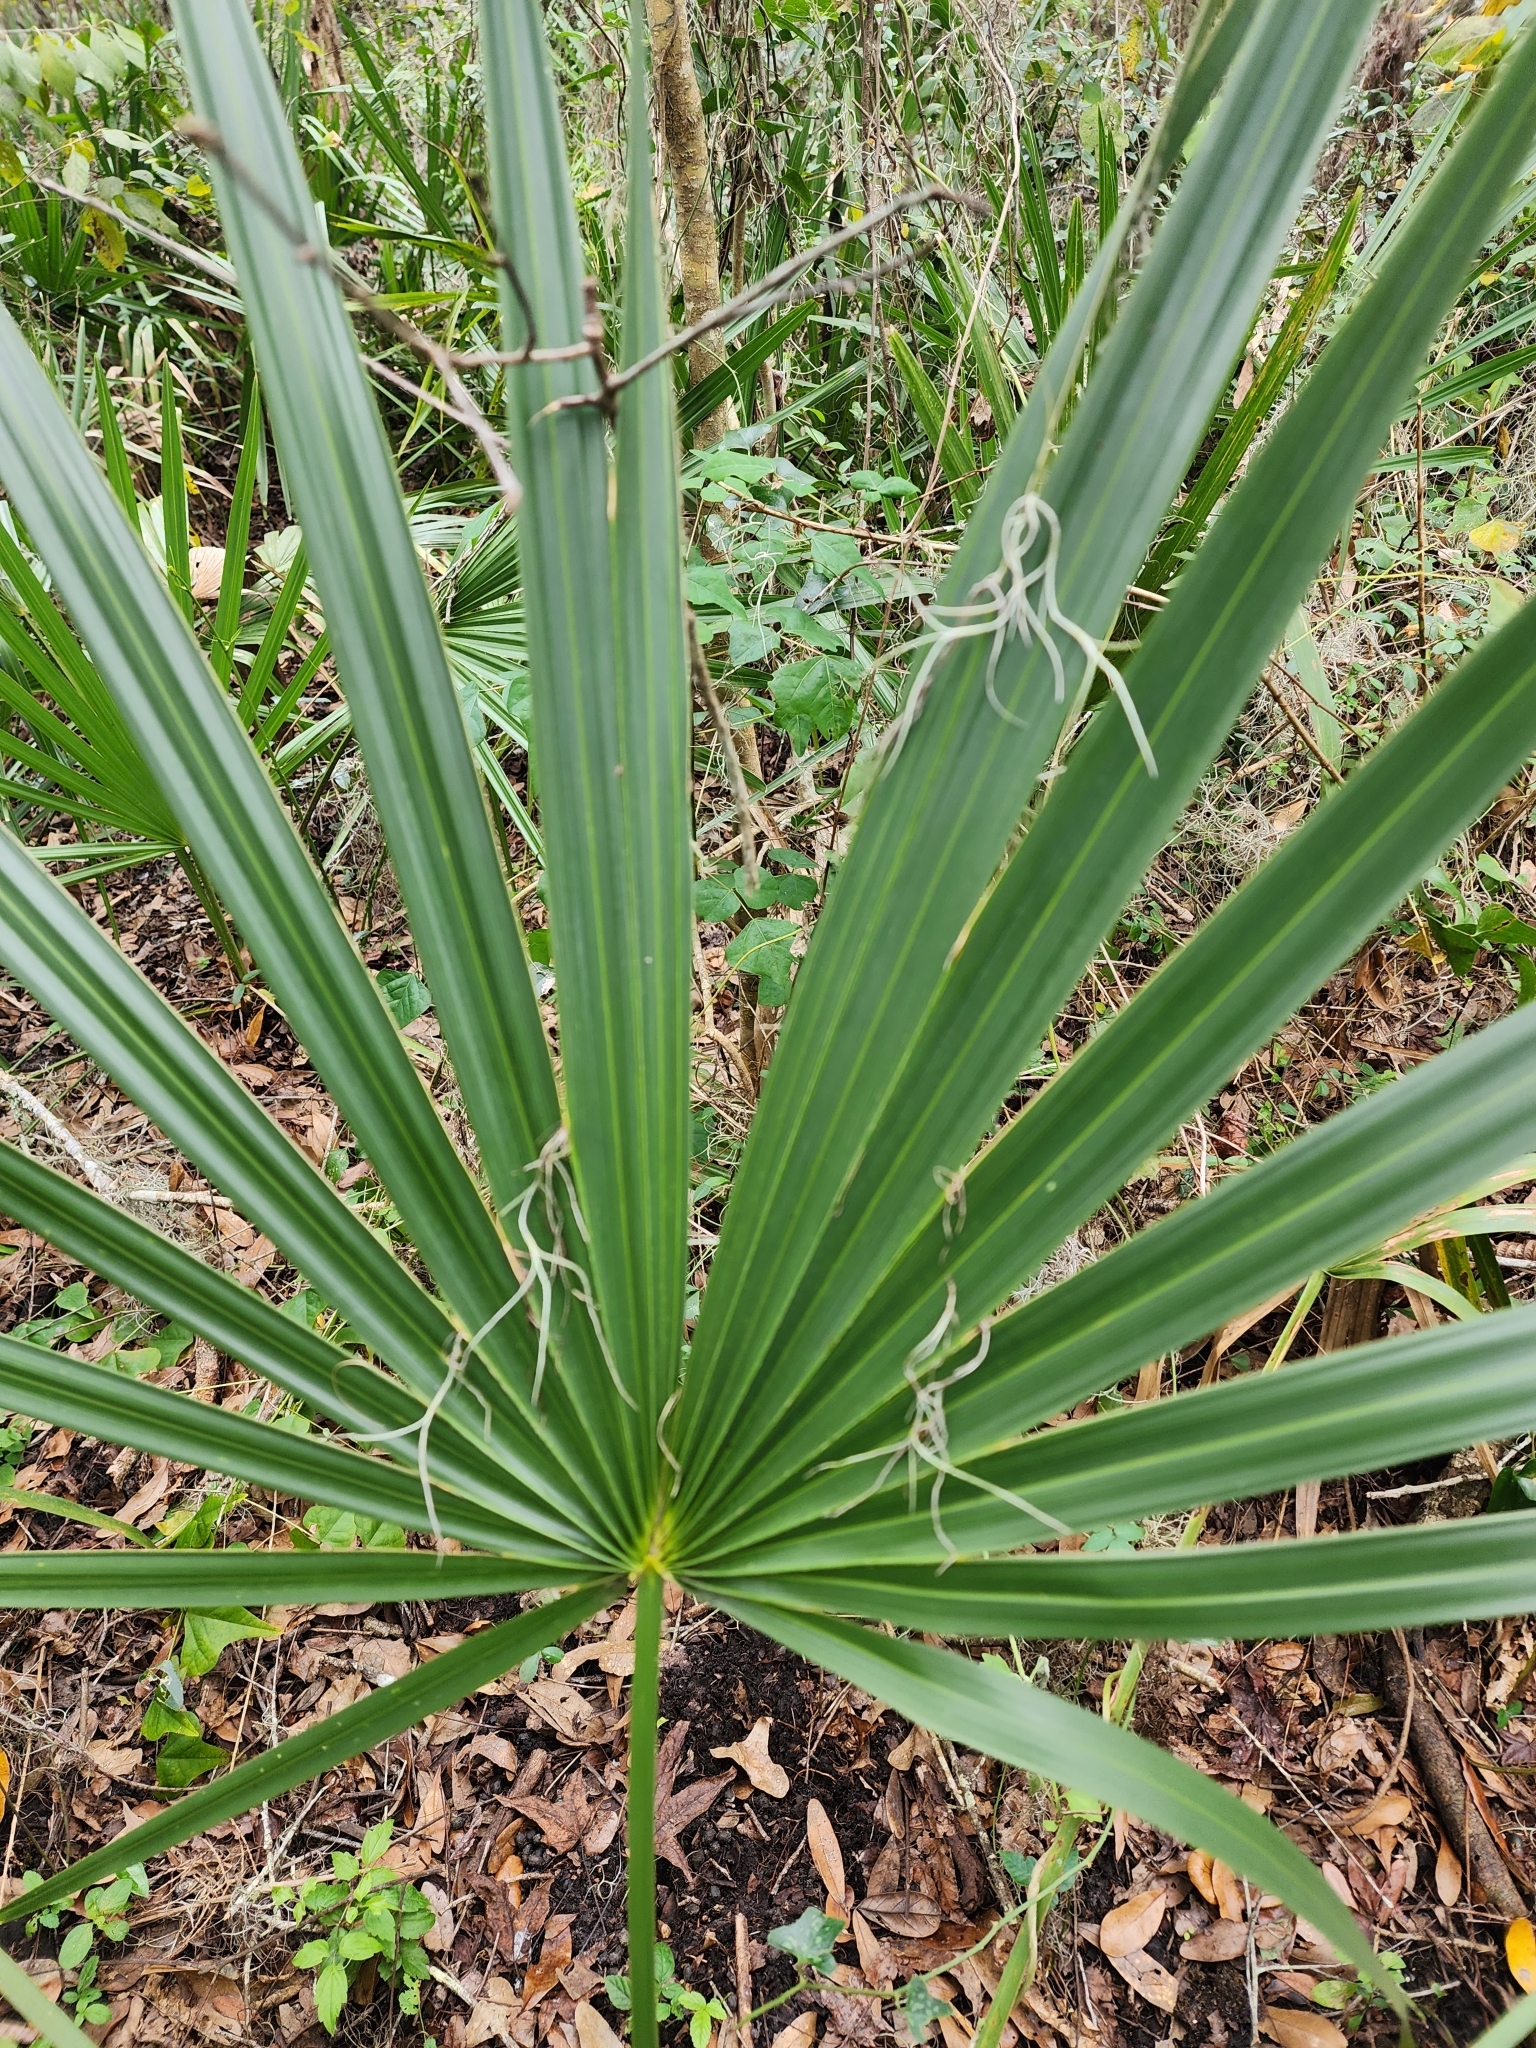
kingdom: Plantae
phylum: Tracheophyta
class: Liliopsida
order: Arecales
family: Arecaceae
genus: Sabal
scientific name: Sabal minor
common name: Dwarf palmetto
